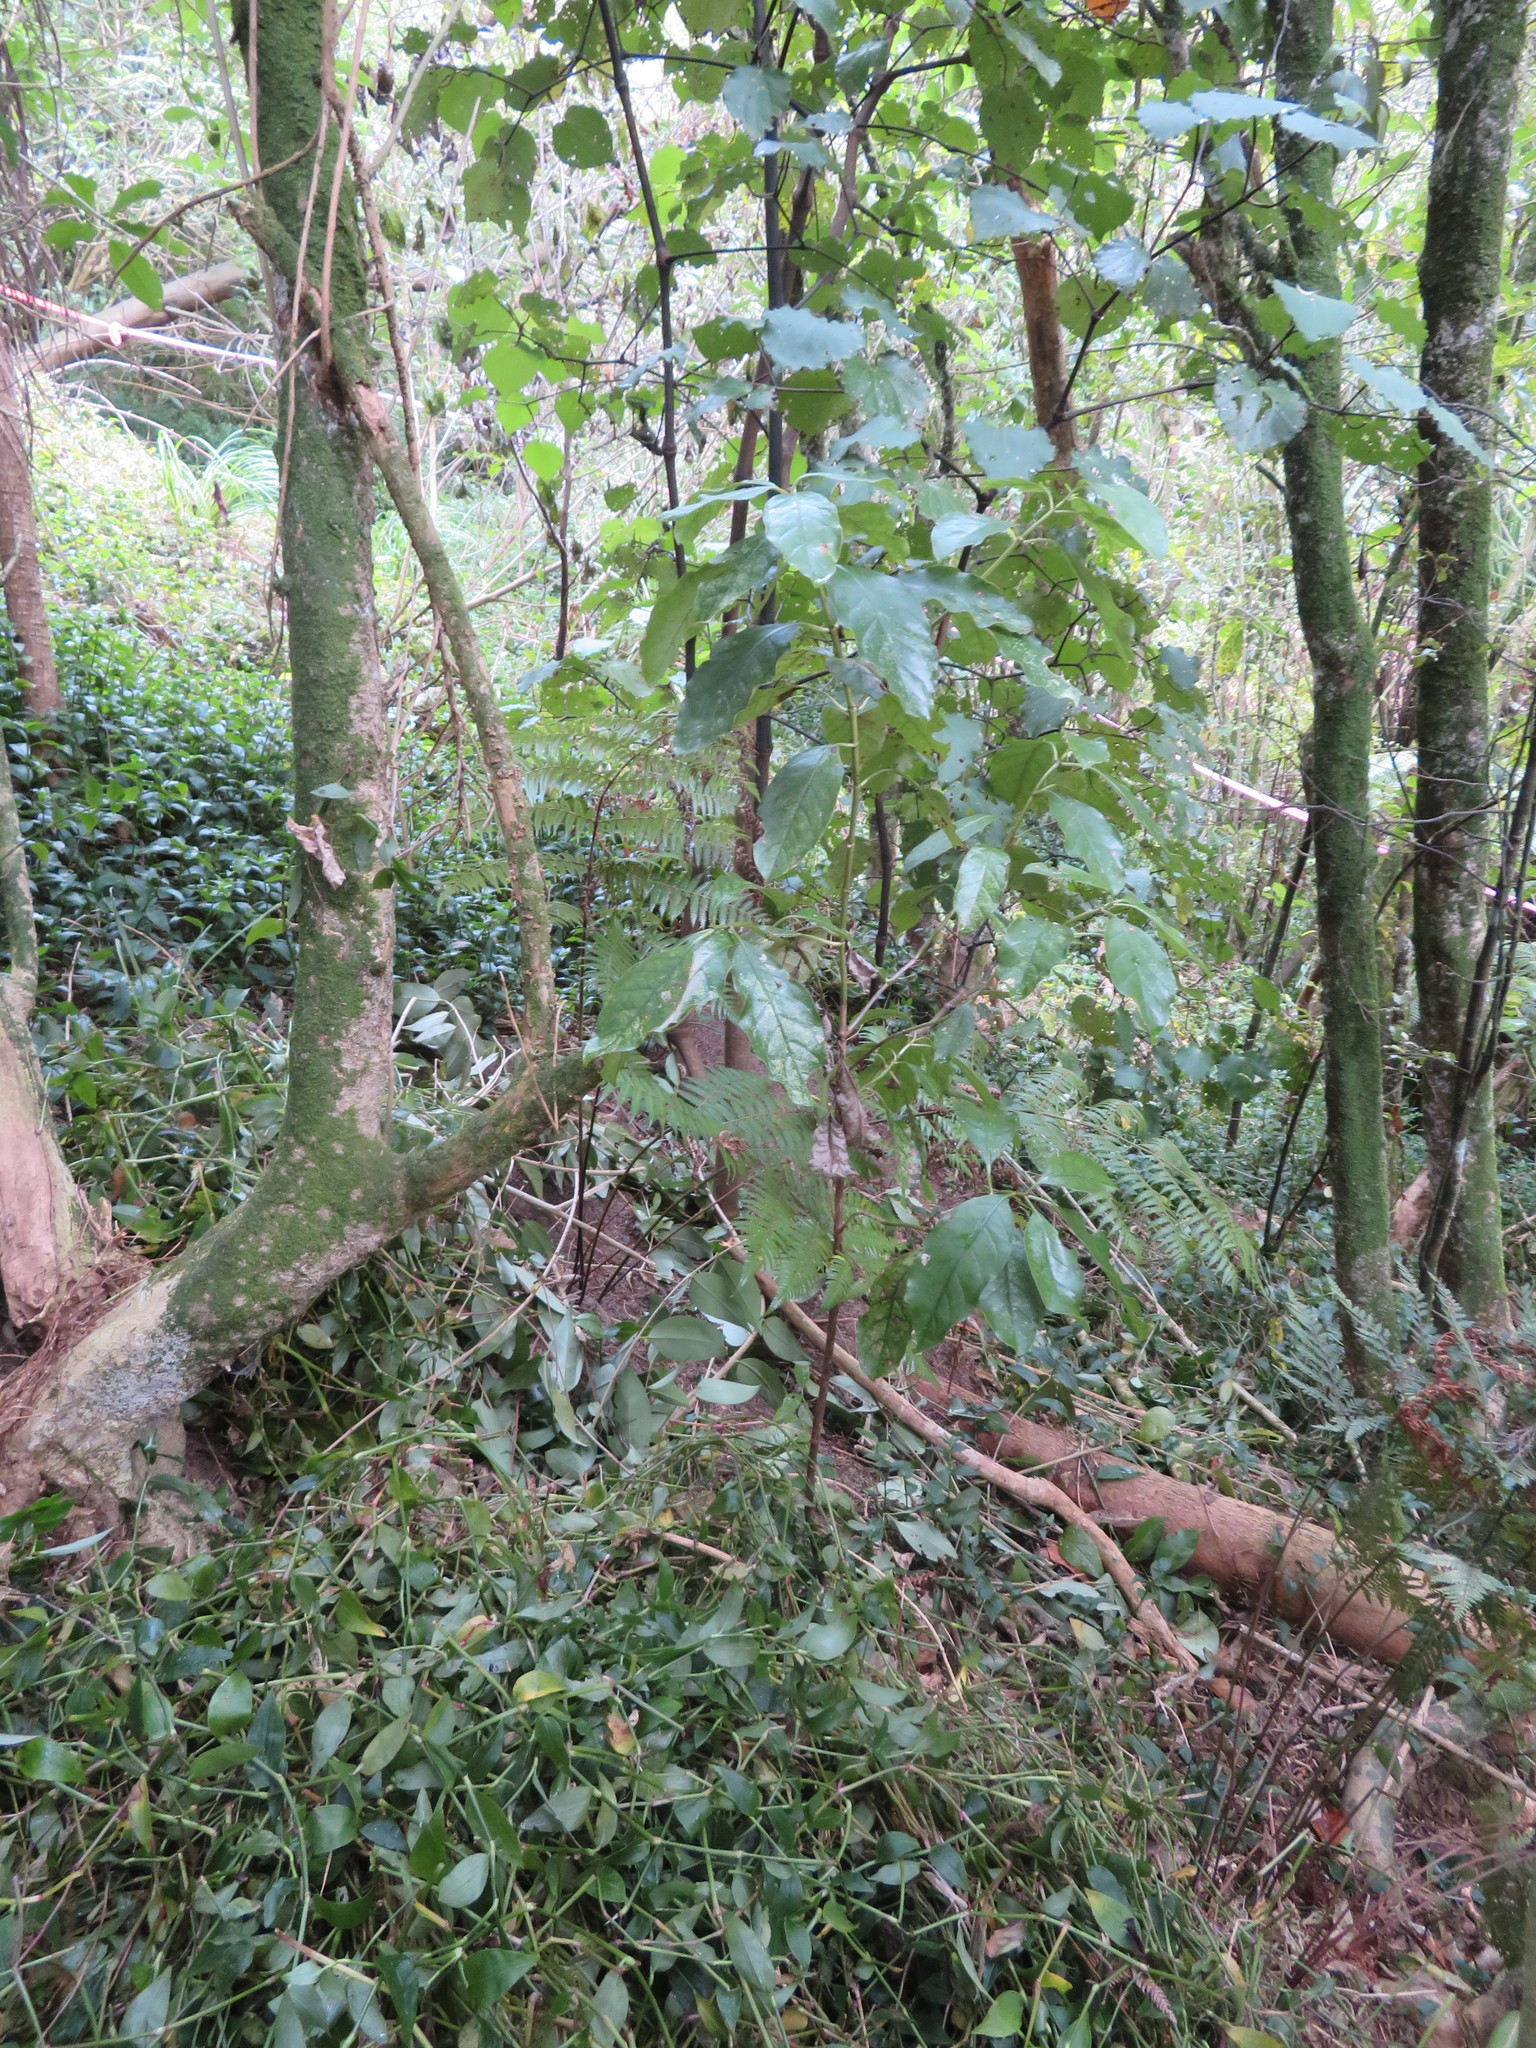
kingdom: Plantae
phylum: Tracheophyta
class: Magnoliopsida
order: Gentianales
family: Rubiaceae
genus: Coprosma
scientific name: Coprosma autumnalis
